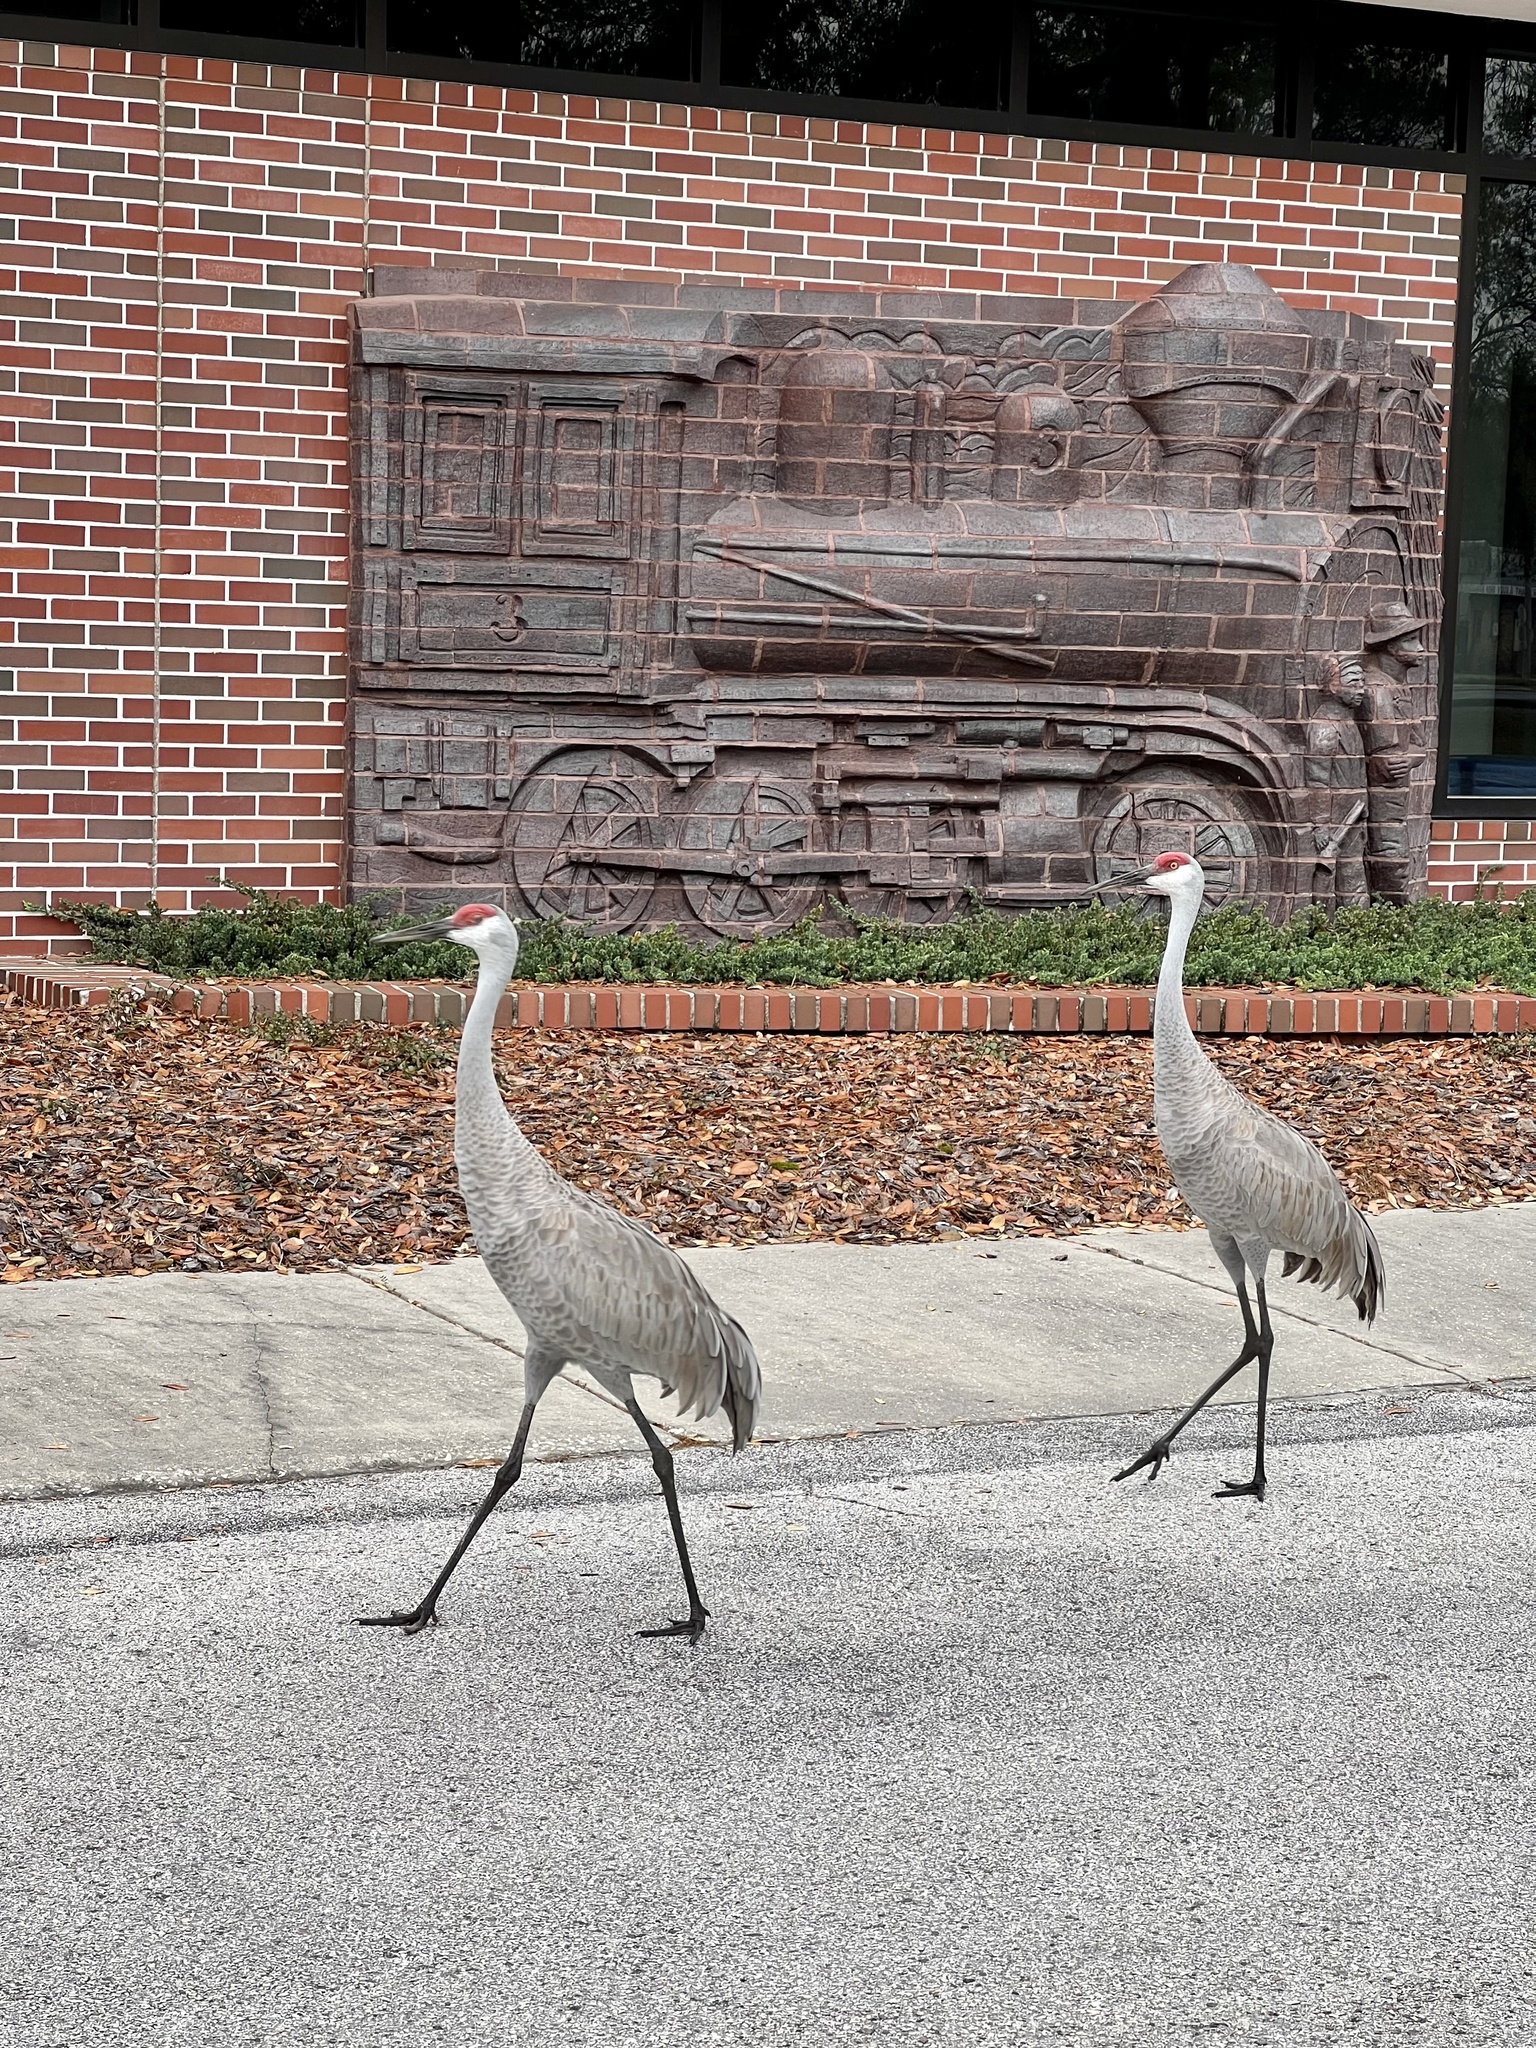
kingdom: Animalia
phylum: Chordata
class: Aves
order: Gruiformes
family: Gruidae
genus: Grus
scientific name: Grus canadensis
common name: Sandhill crane
